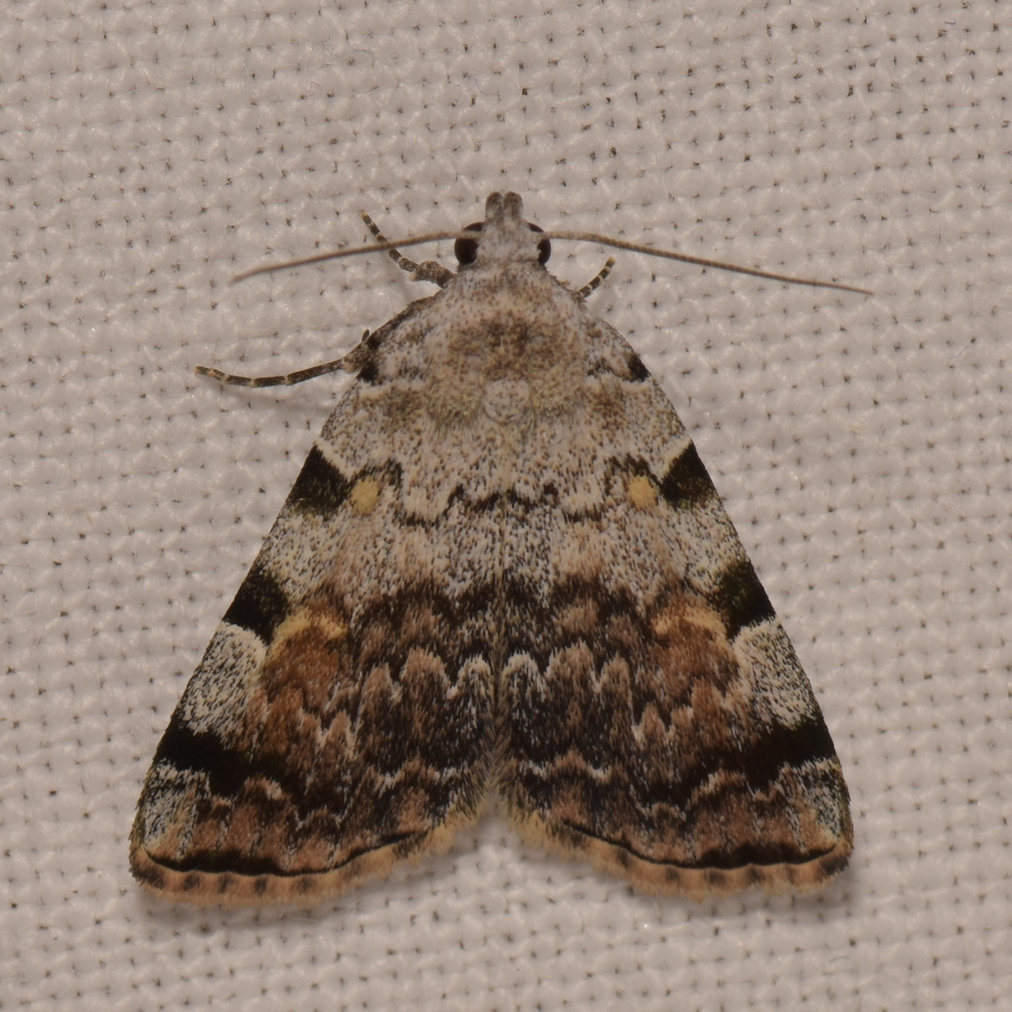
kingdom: Animalia
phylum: Arthropoda
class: Insecta
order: Lepidoptera
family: Erebidae
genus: Idia
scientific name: Idia americalis
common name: American idia moth
